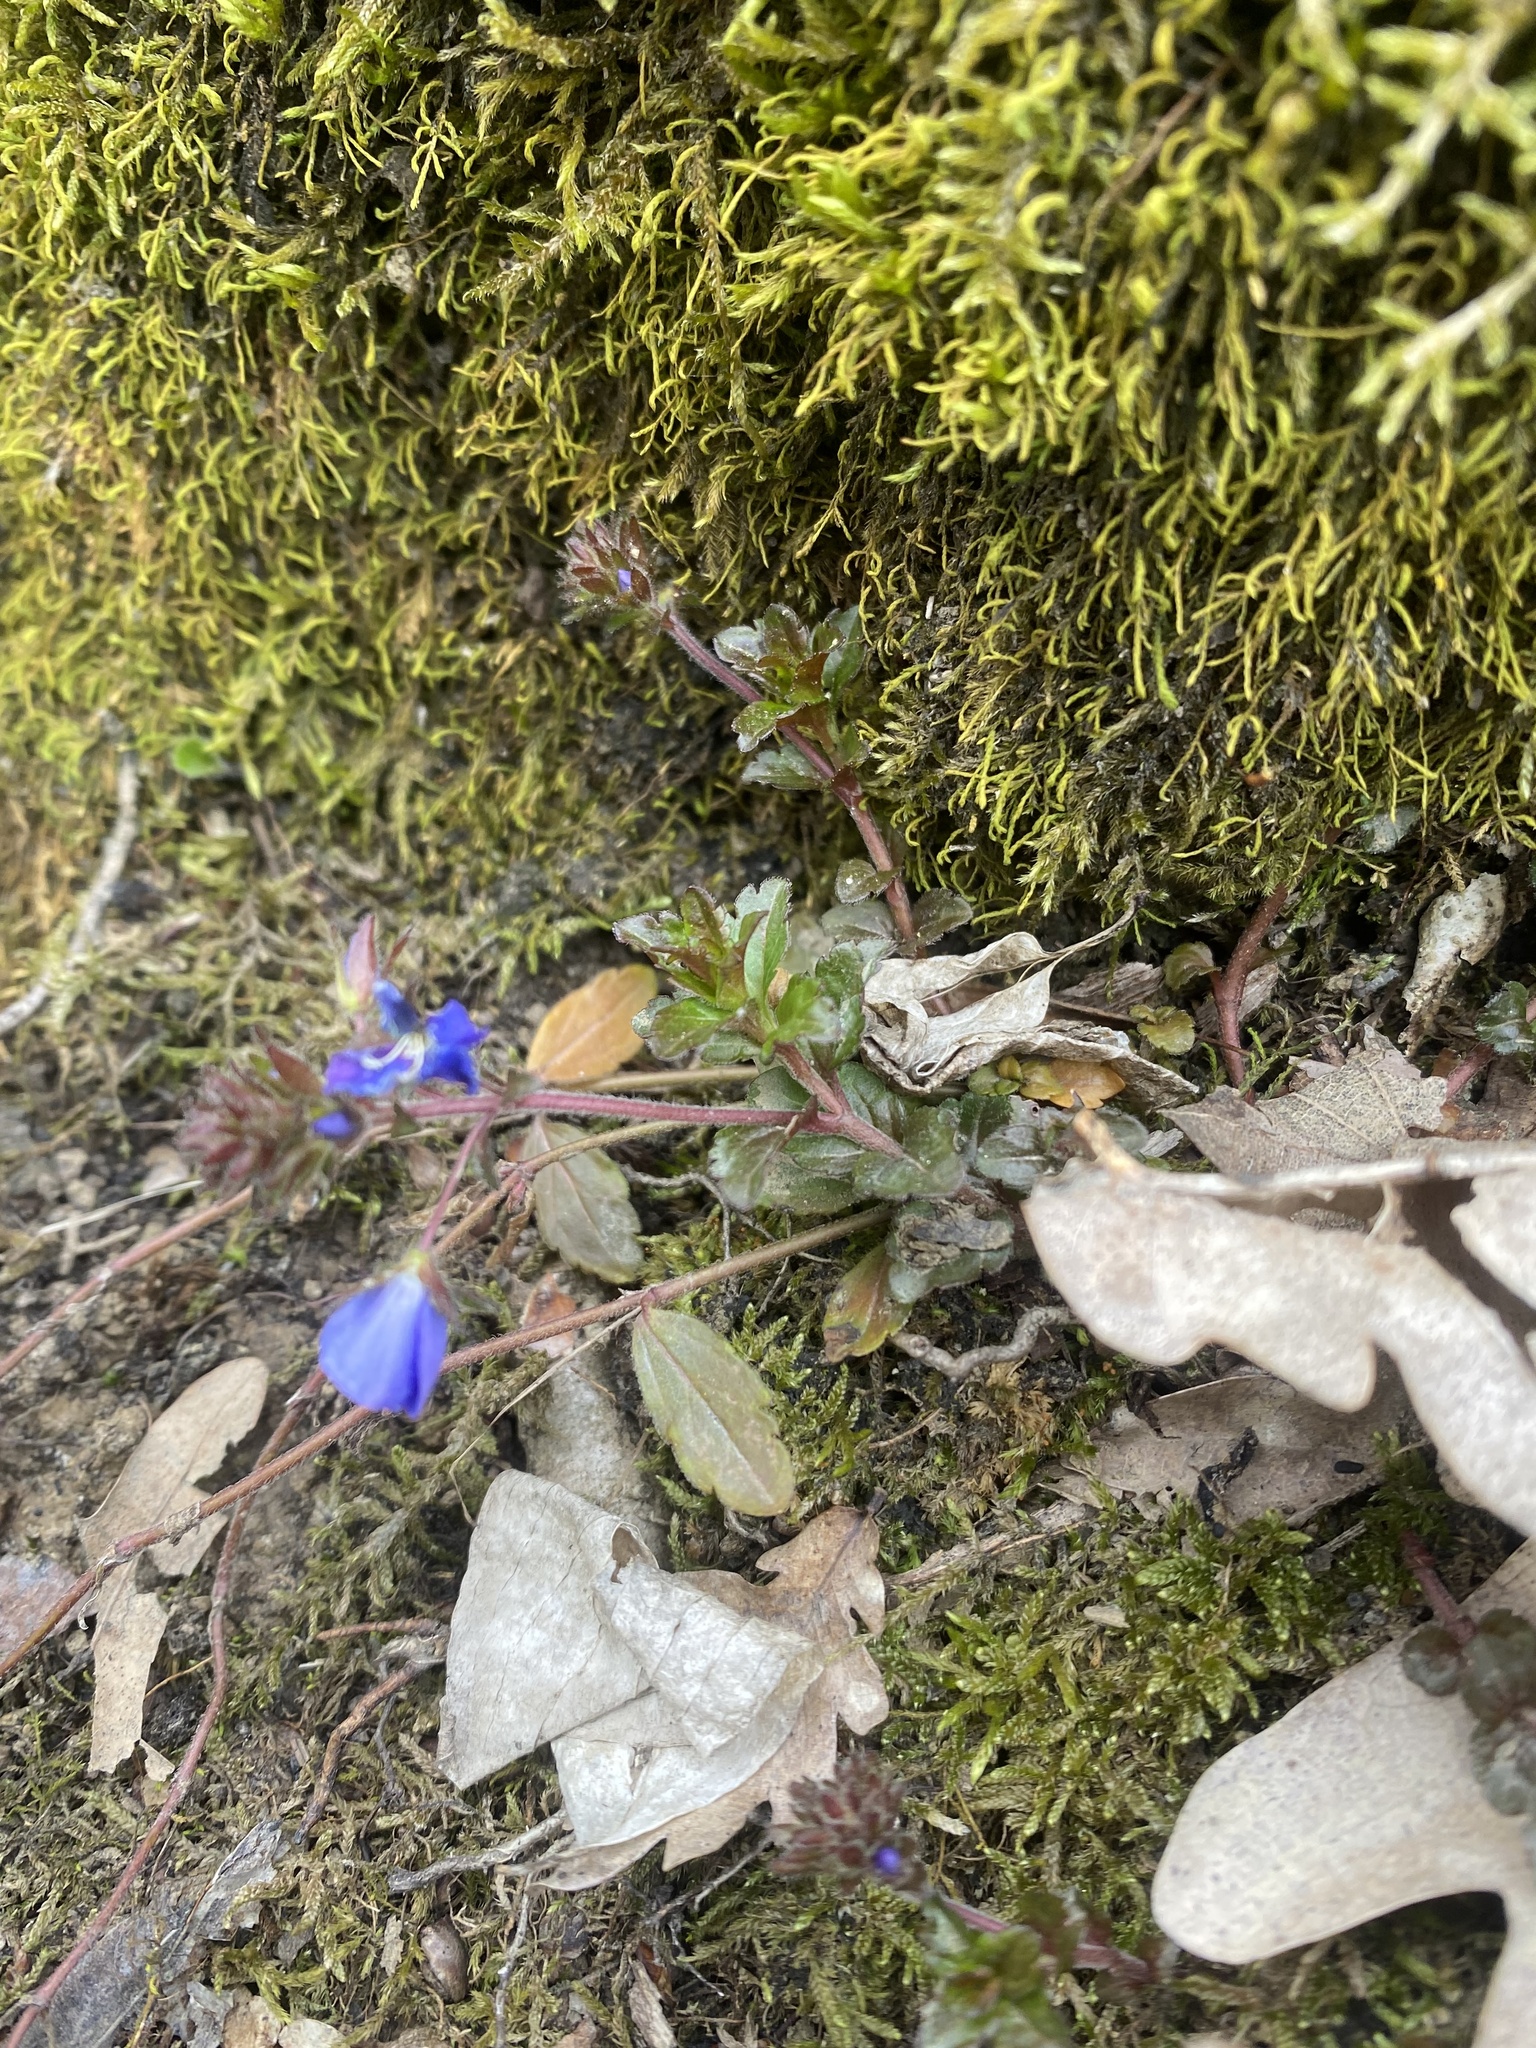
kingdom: Plantae
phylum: Tracheophyta
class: Magnoliopsida
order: Lamiales
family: Plantaginaceae
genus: Veronica
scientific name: Veronica
